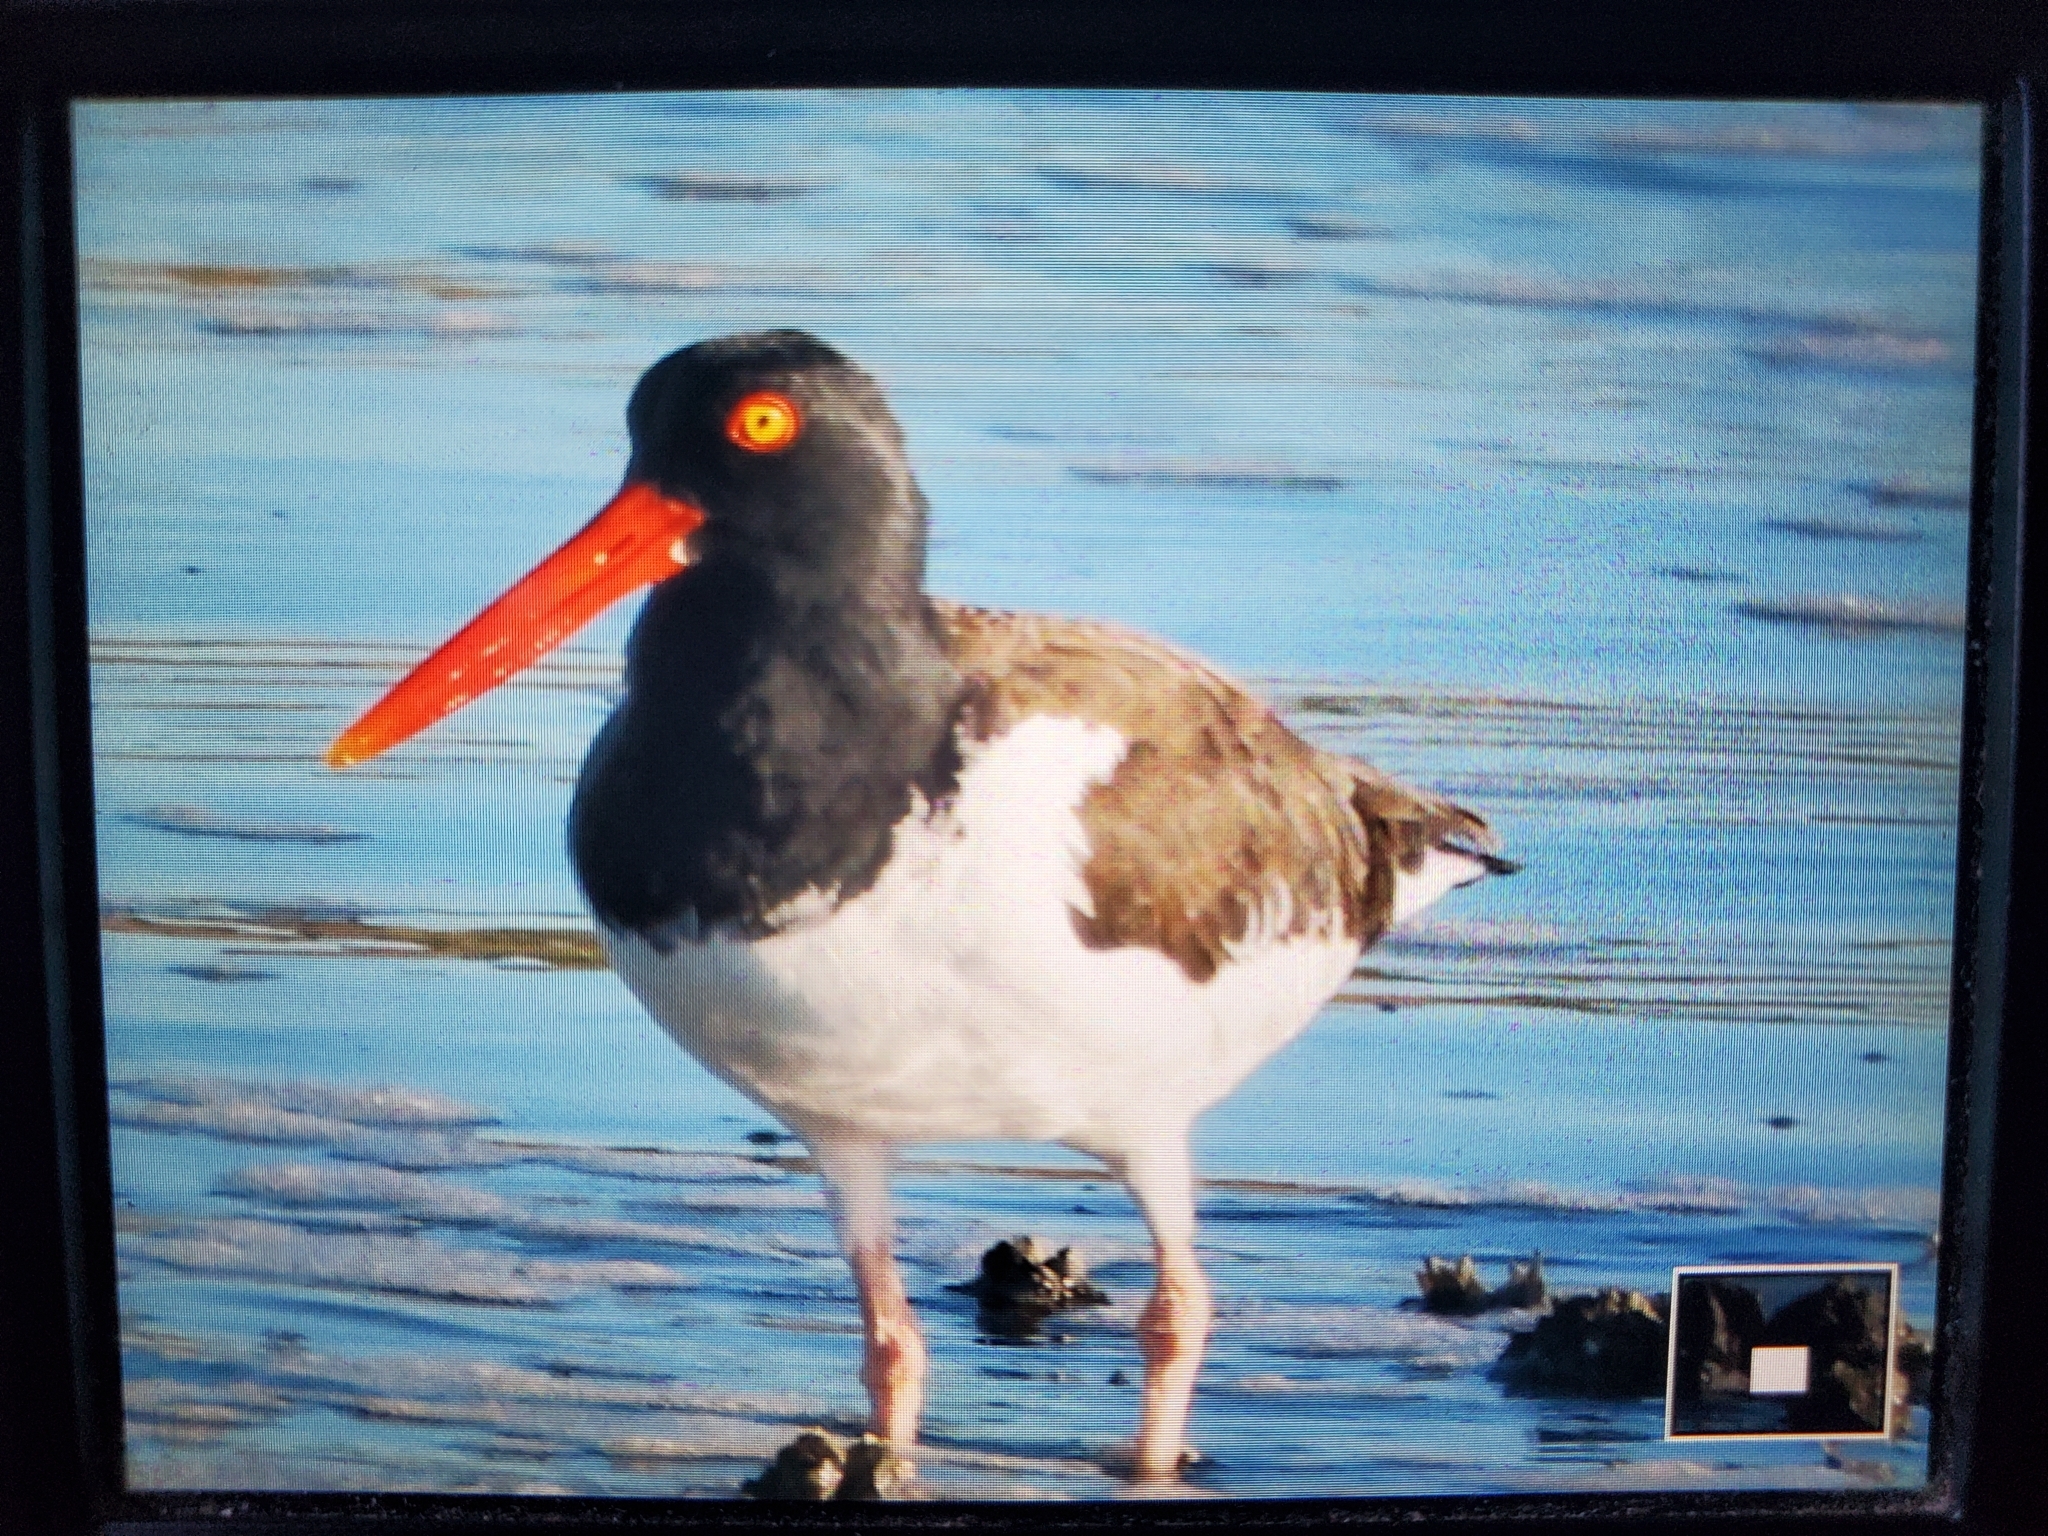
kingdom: Animalia
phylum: Chordata
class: Aves
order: Charadriiformes
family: Haematopodidae
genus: Haematopus
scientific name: Haematopus palliatus
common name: American oystercatcher
